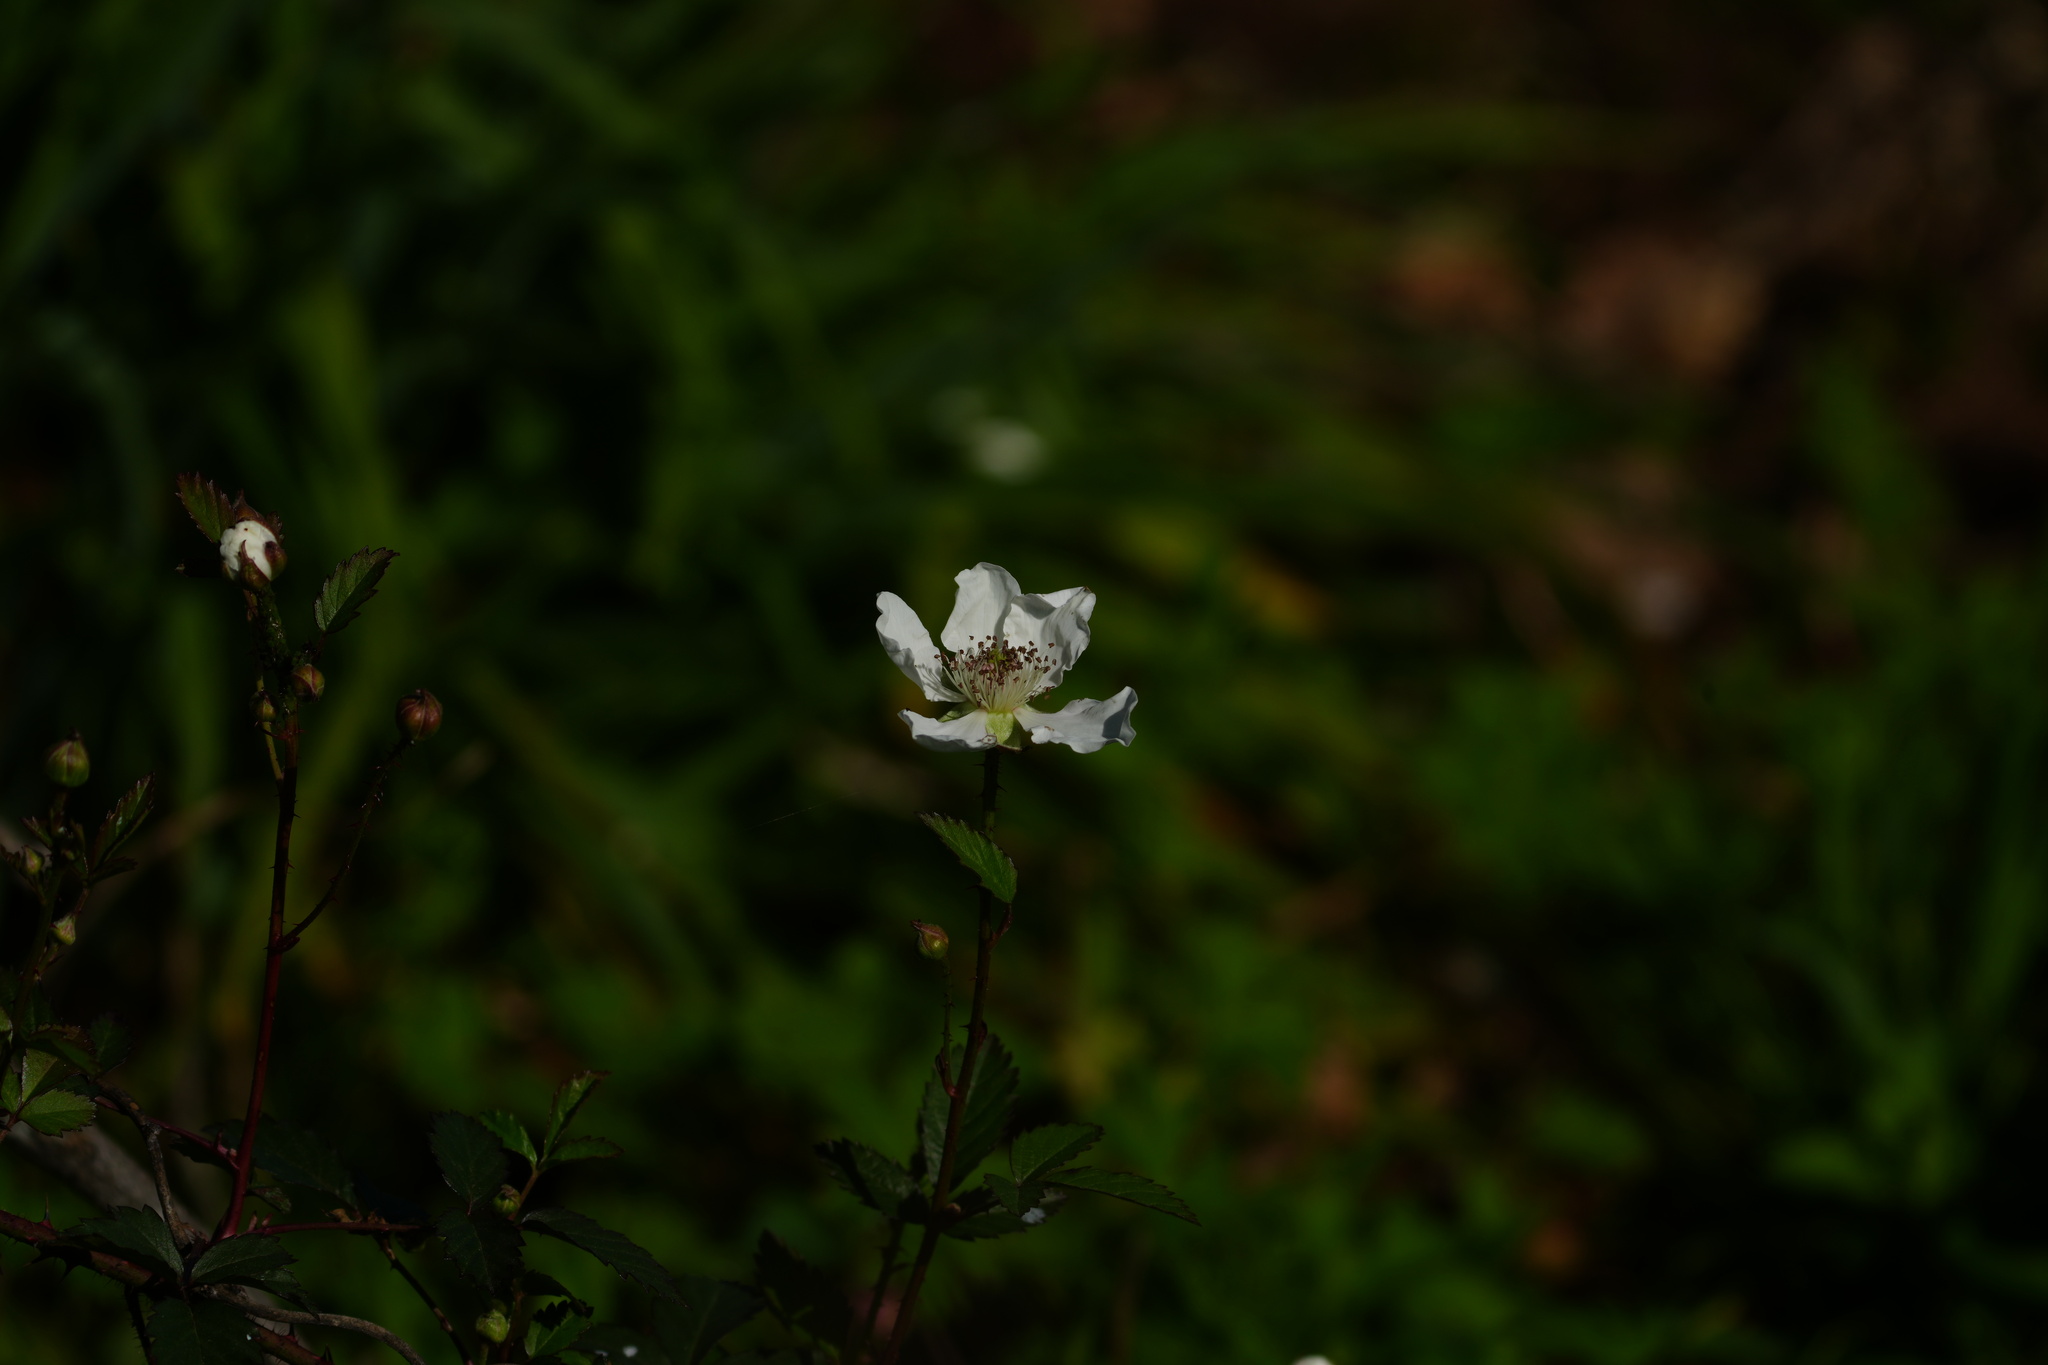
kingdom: Plantae
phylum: Tracheophyta
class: Magnoliopsida
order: Rosales
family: Rosaceae
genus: Rubus
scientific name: Rubus trivialis
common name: Southern dewberry
